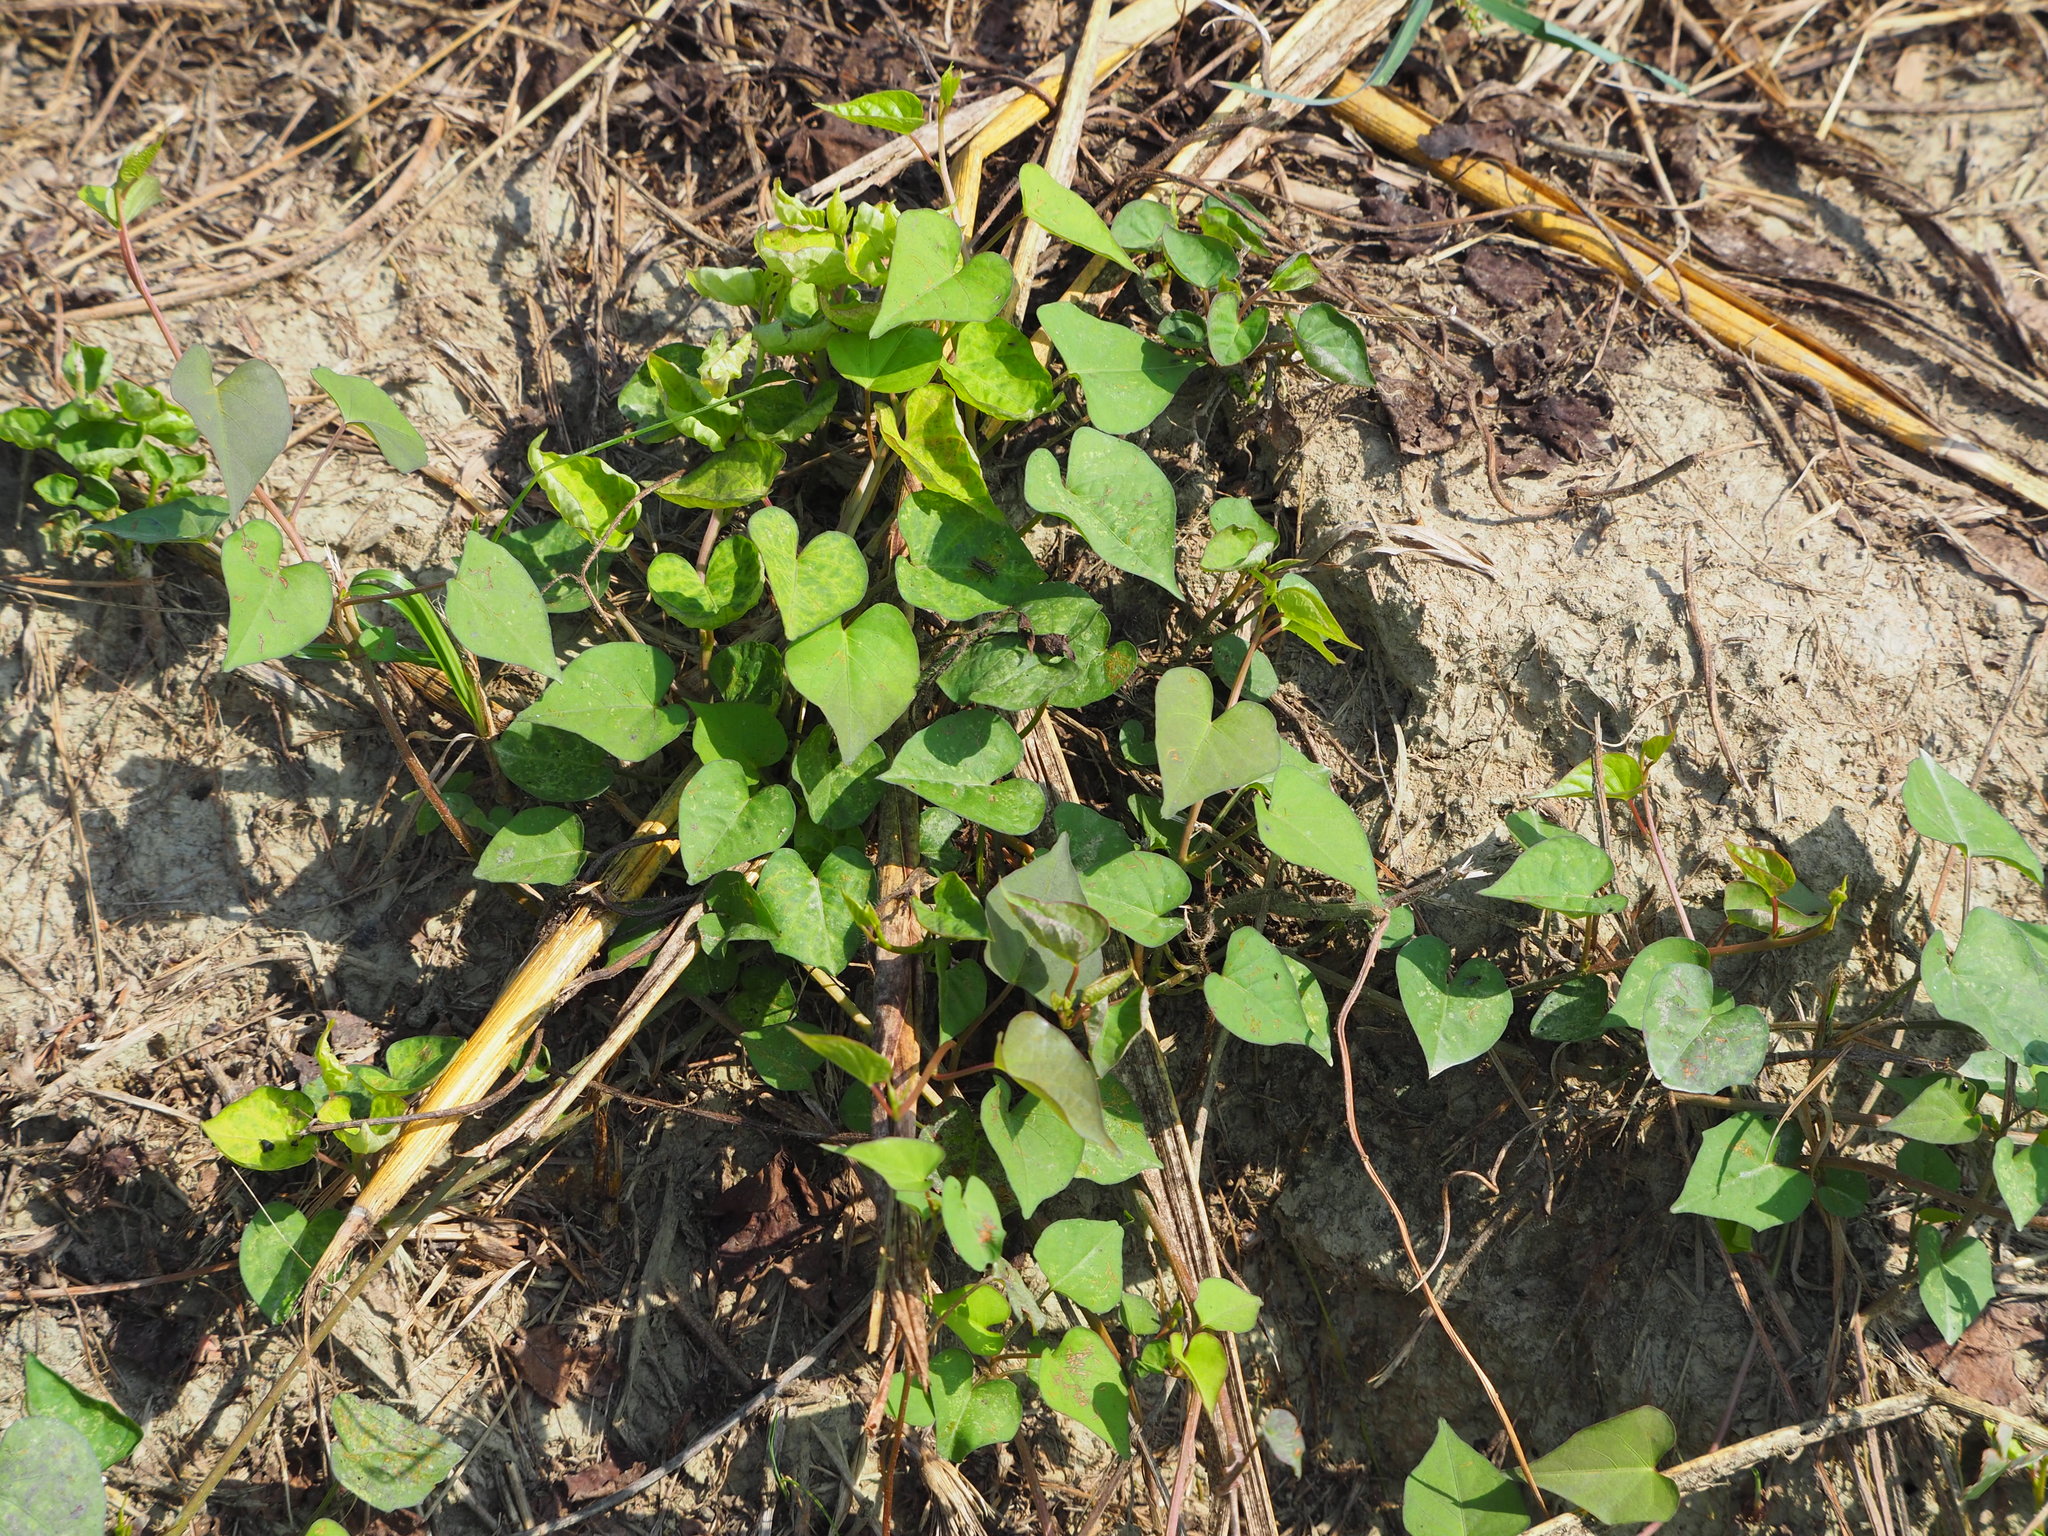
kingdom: Plantae
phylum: Tracheophyta
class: Magnoliopsida
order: Solanales
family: Convolvulaceae
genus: Ipomoea
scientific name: Ipomoea obscura
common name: Obscure morning-glory
